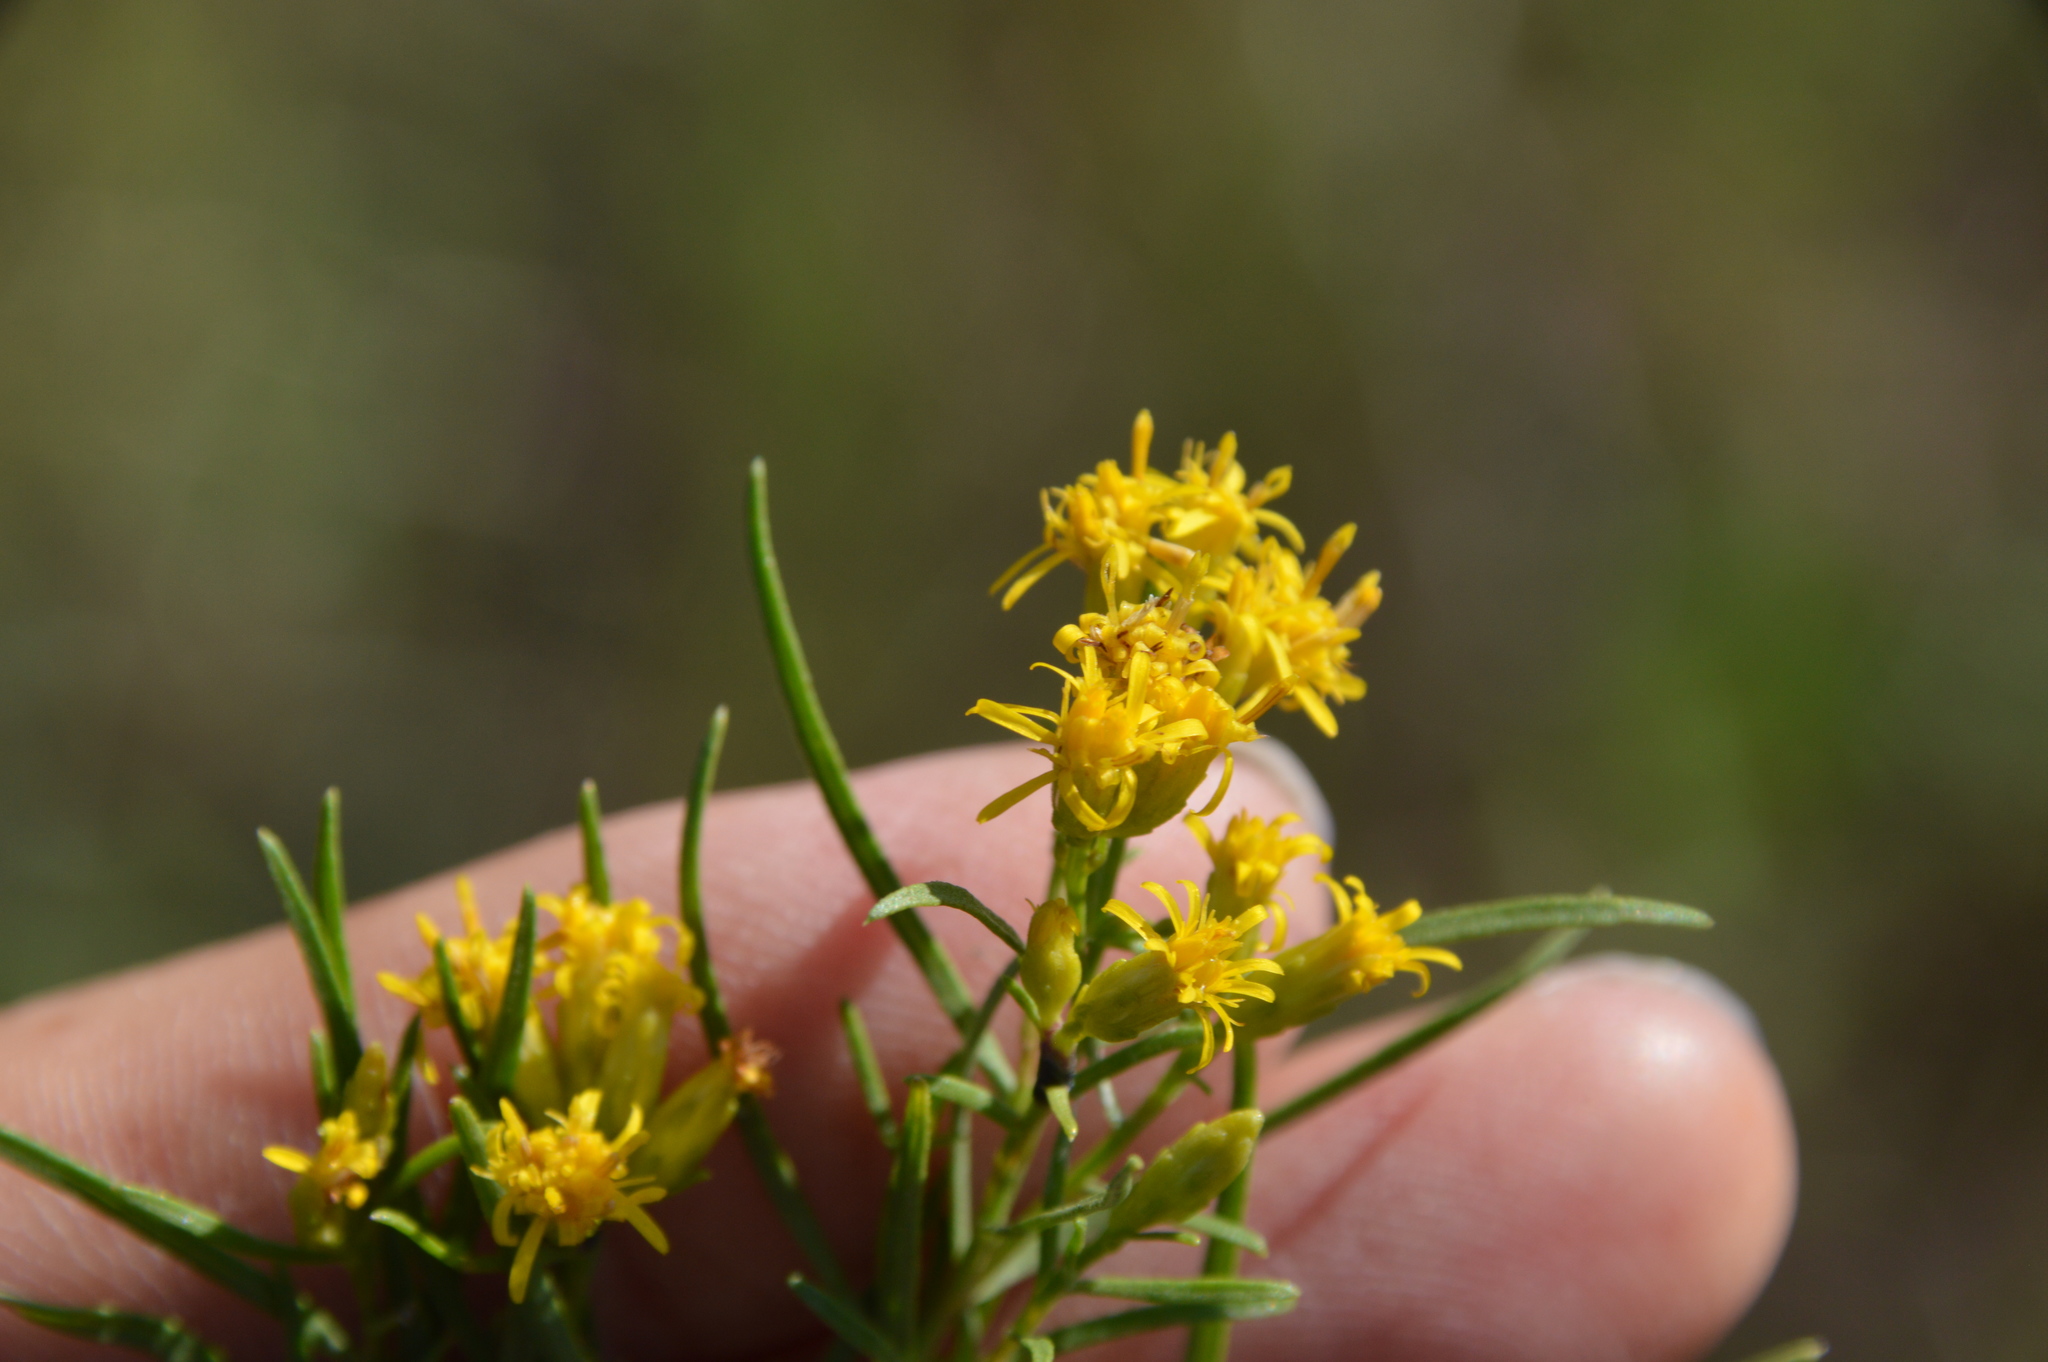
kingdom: Plantae
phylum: Tracheophyta
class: Magnoliopsida
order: Asterales
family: Asteraceae
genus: Euthamia
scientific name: Euthamia gymnospermoides
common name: Great plains goldentop
